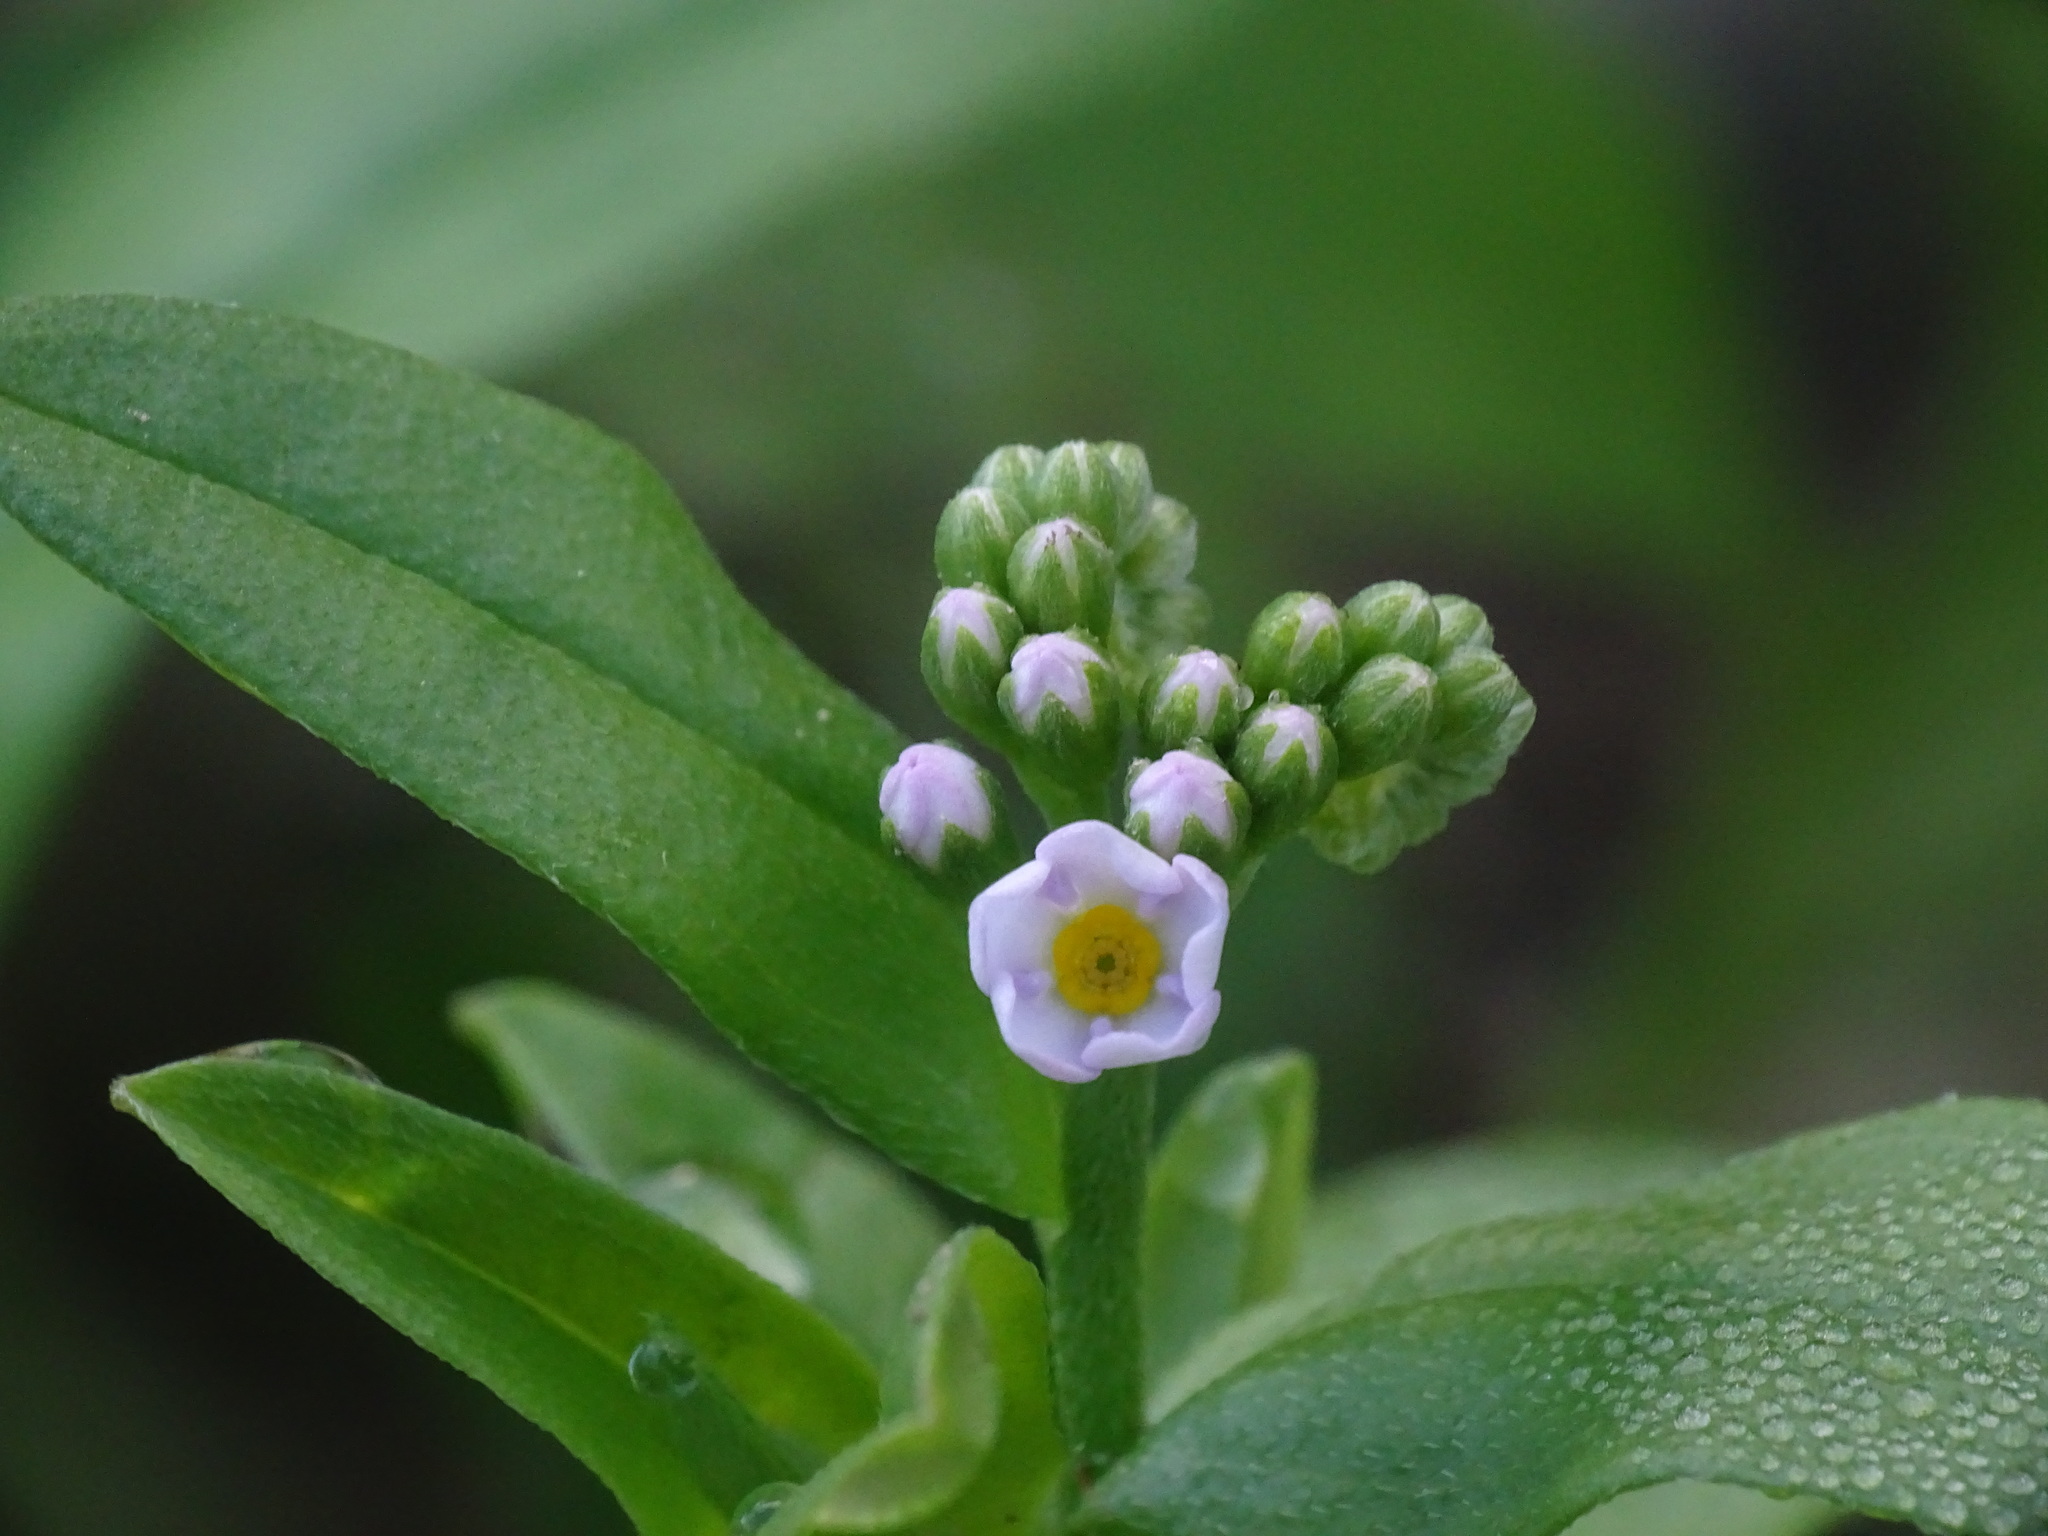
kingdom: Plantae
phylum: Tracheophyta
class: Magnoliopsida
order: Boraginales
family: Boraginaceae
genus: Myosotis
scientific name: Myosotis scorpioides
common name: Water forget-me-not
